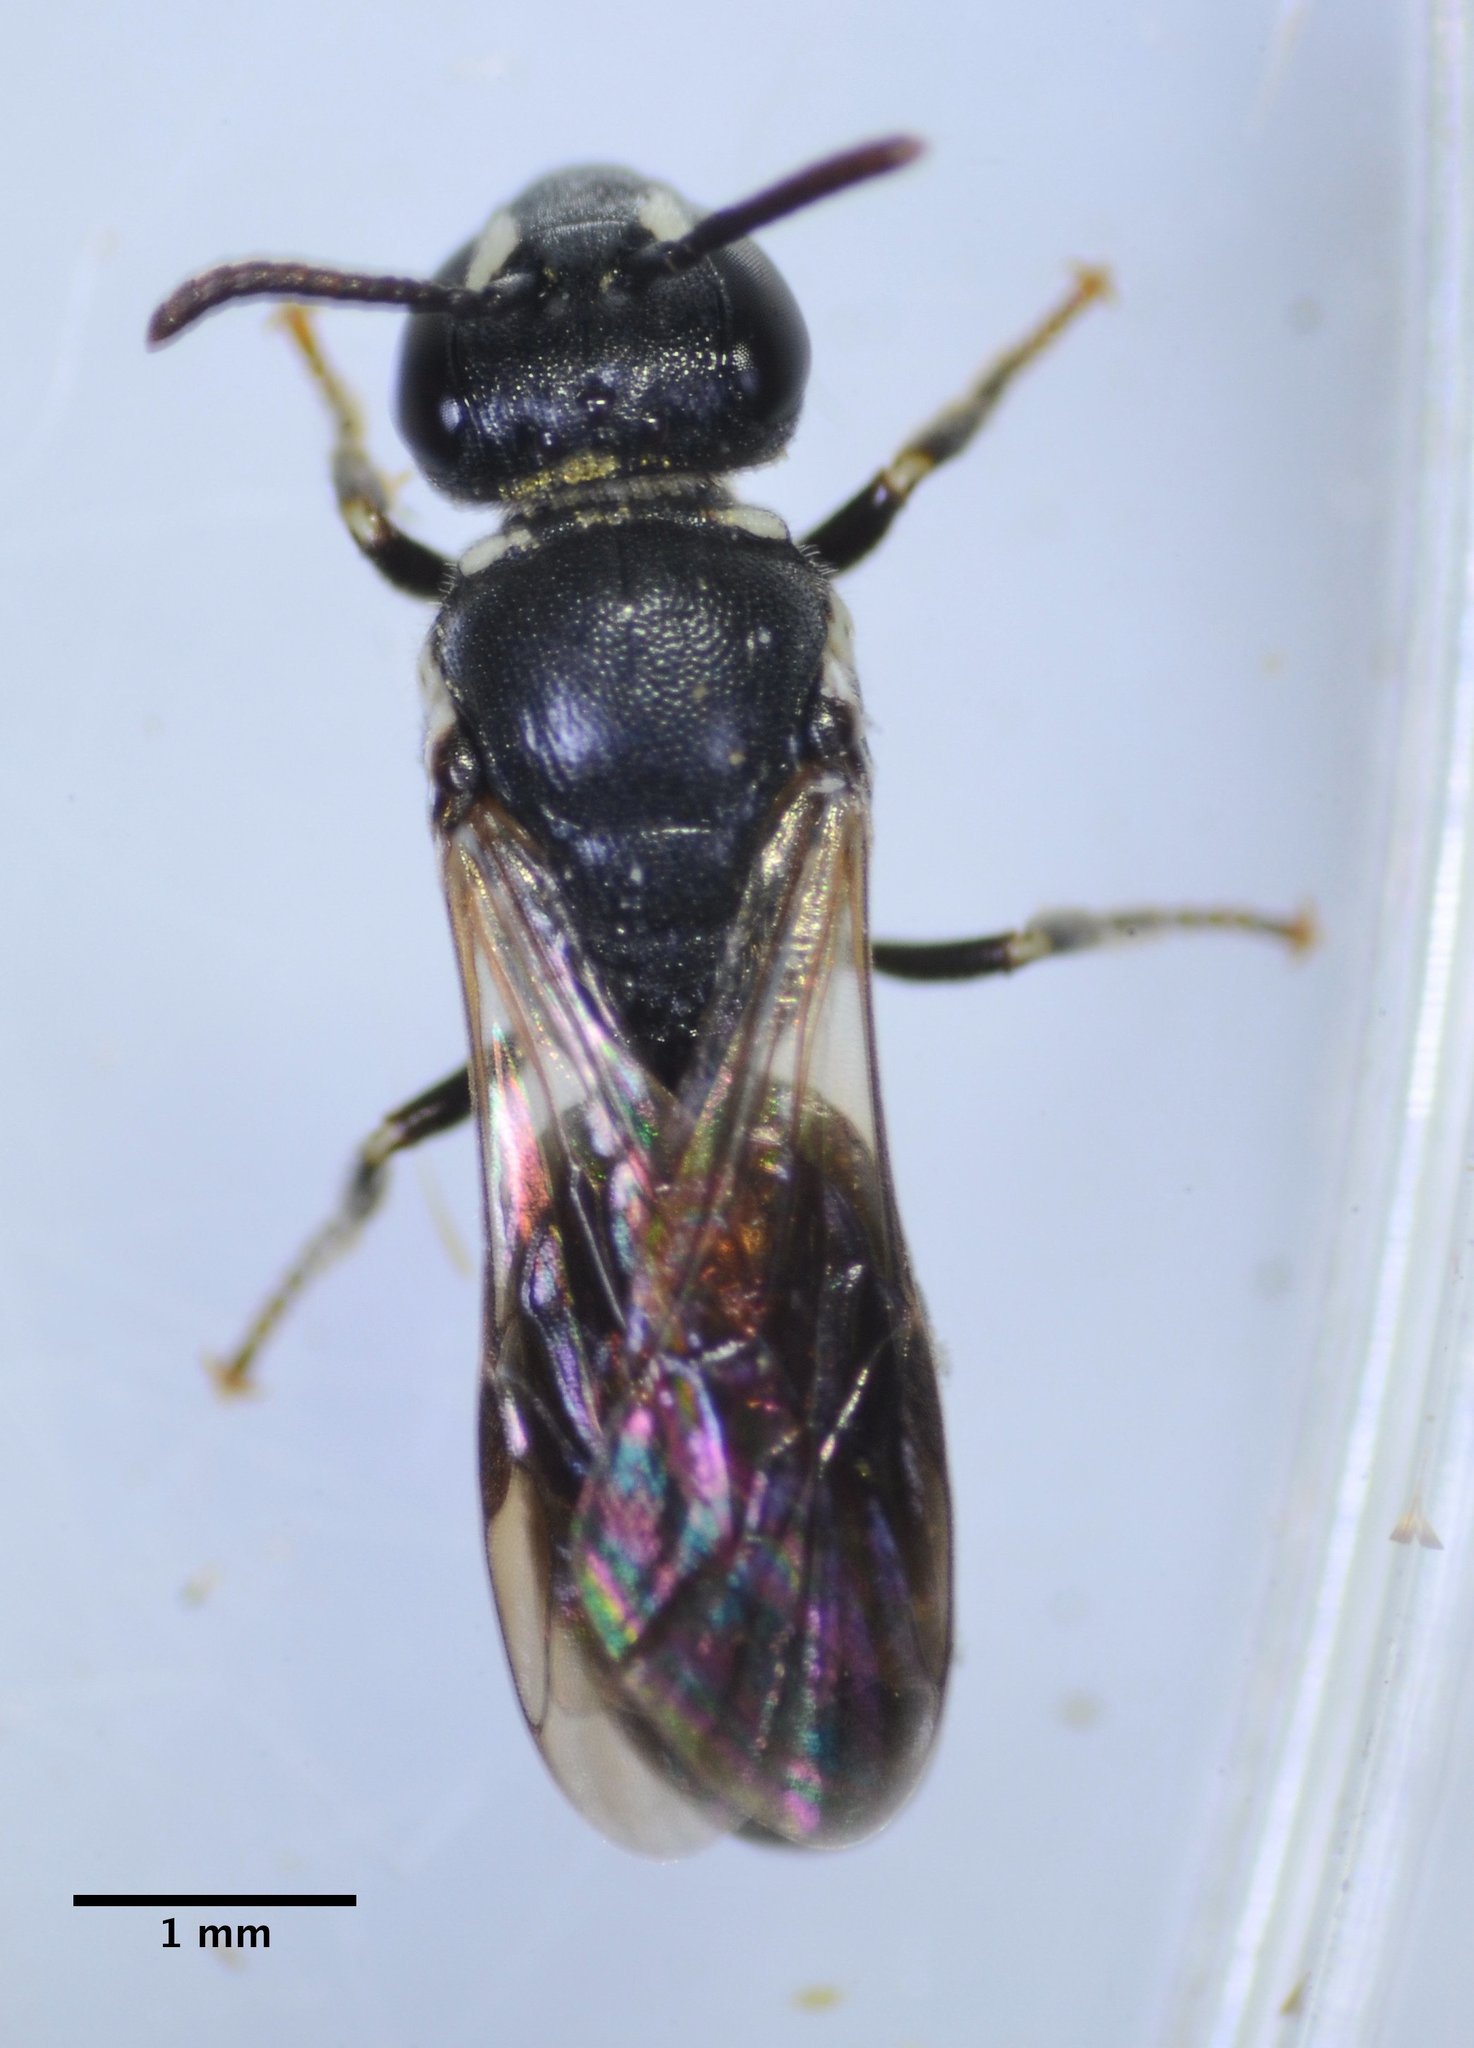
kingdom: Animalia
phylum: Arthropoda
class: Insecta
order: Hymenoptera
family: Colletidae
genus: Hylaeus
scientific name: Hylaeus
